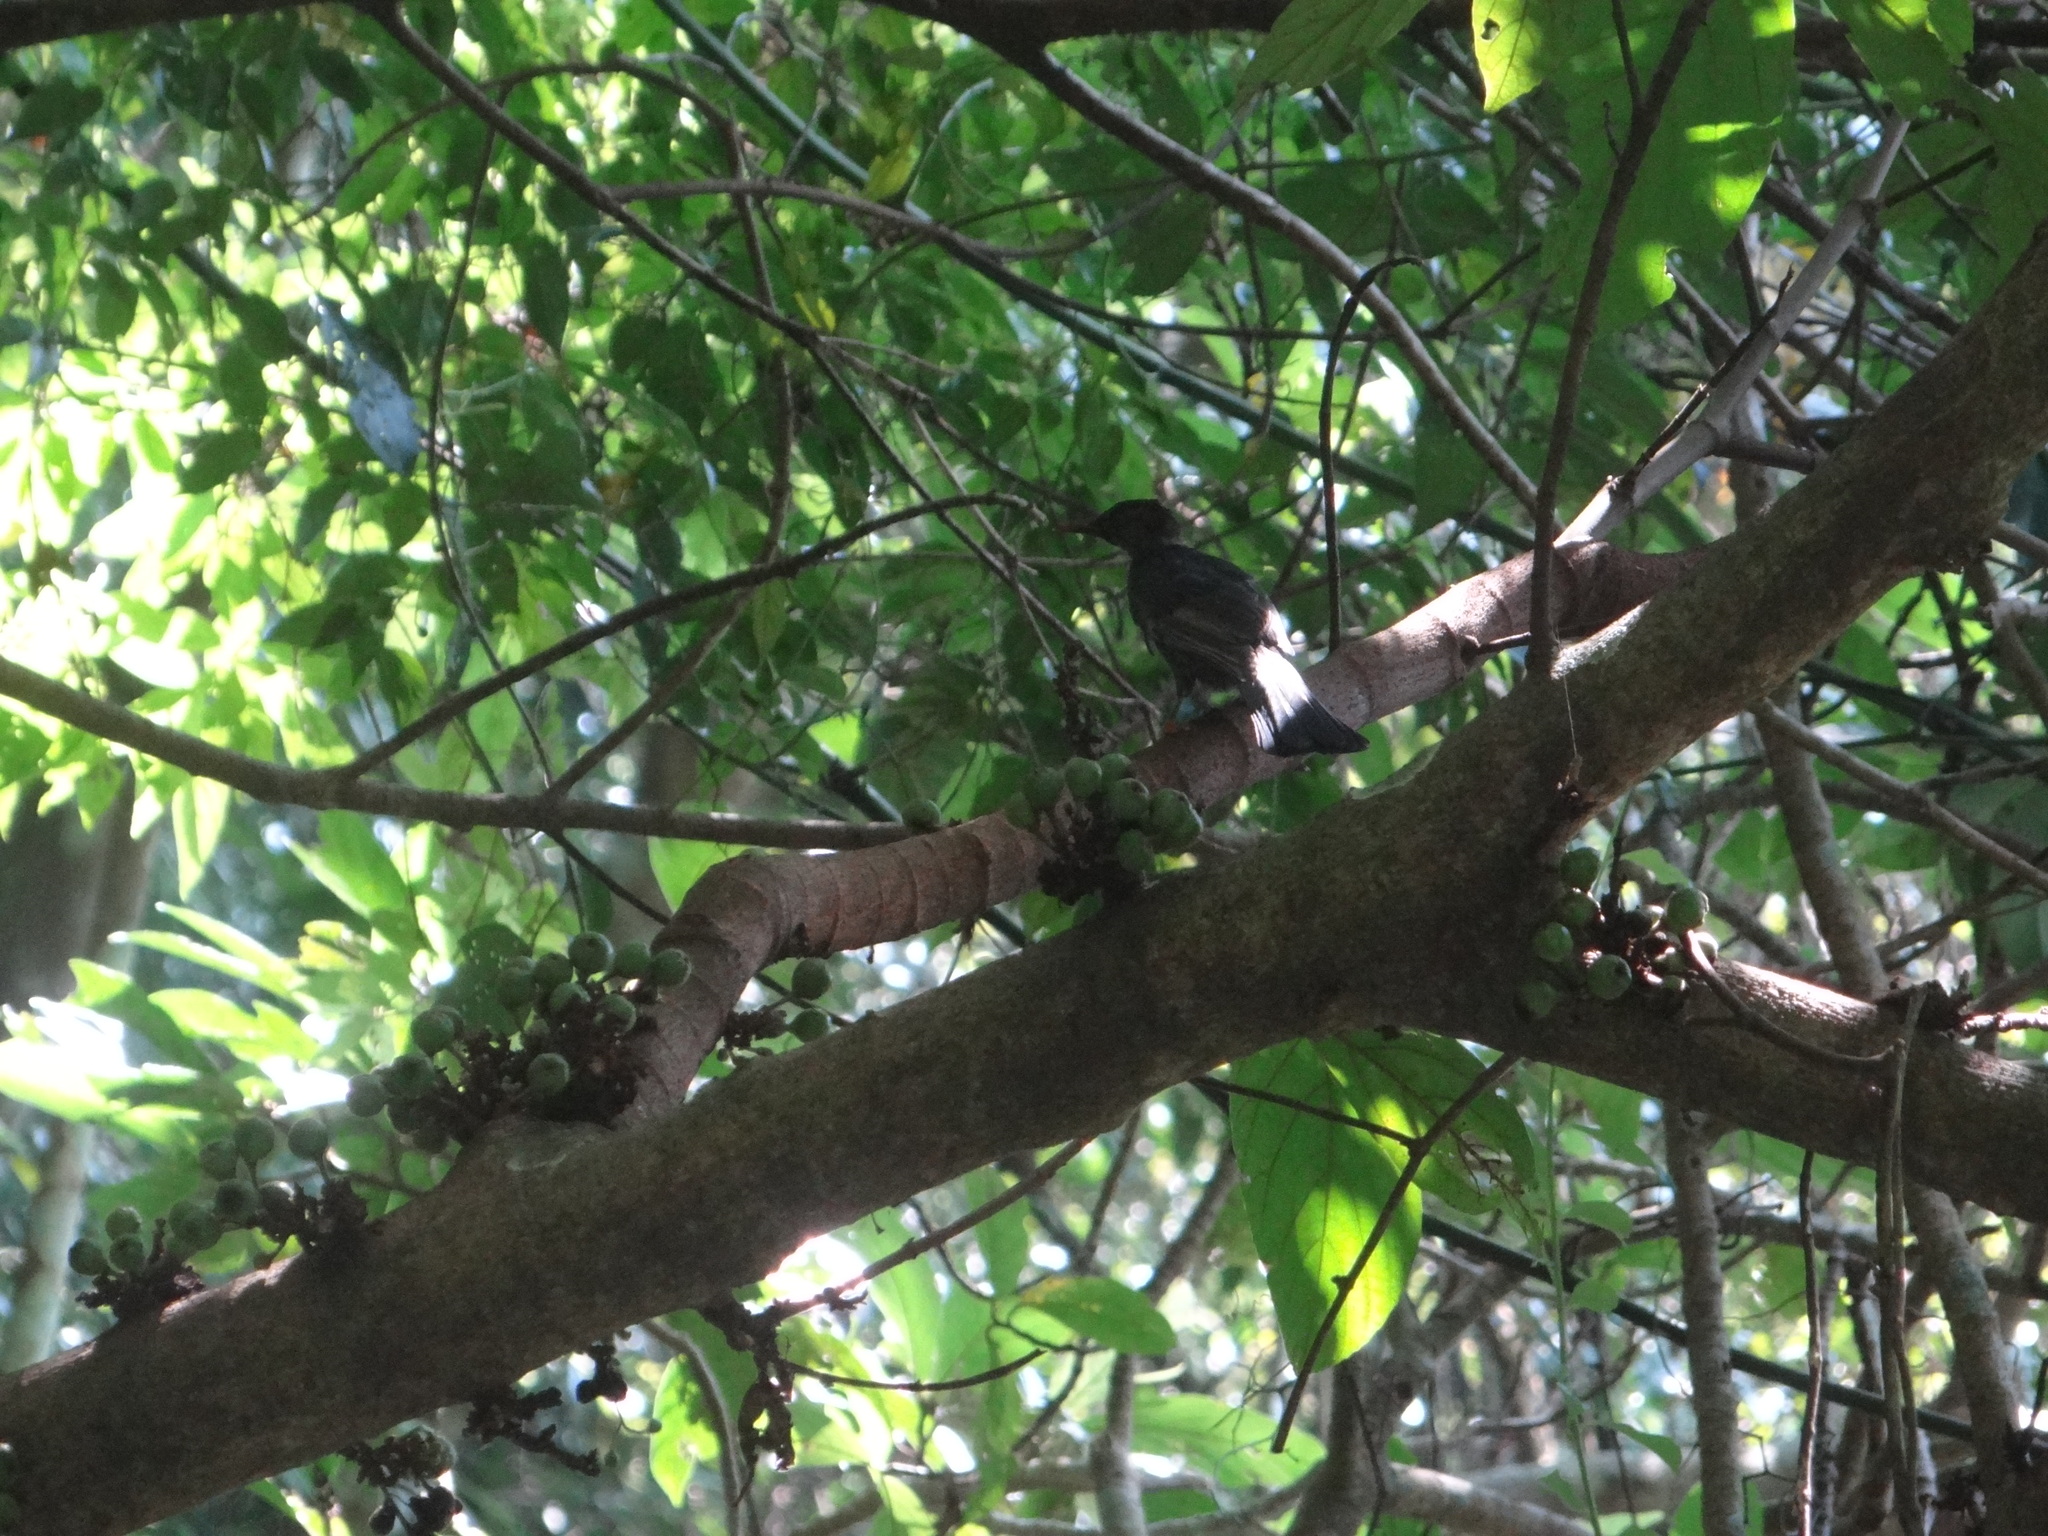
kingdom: Animalia
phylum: Chordata
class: Aves
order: Passeriformes
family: Pycnonotidae
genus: Hypsipetes
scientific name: Hypsipetes leucocephalus
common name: Black bulbul
